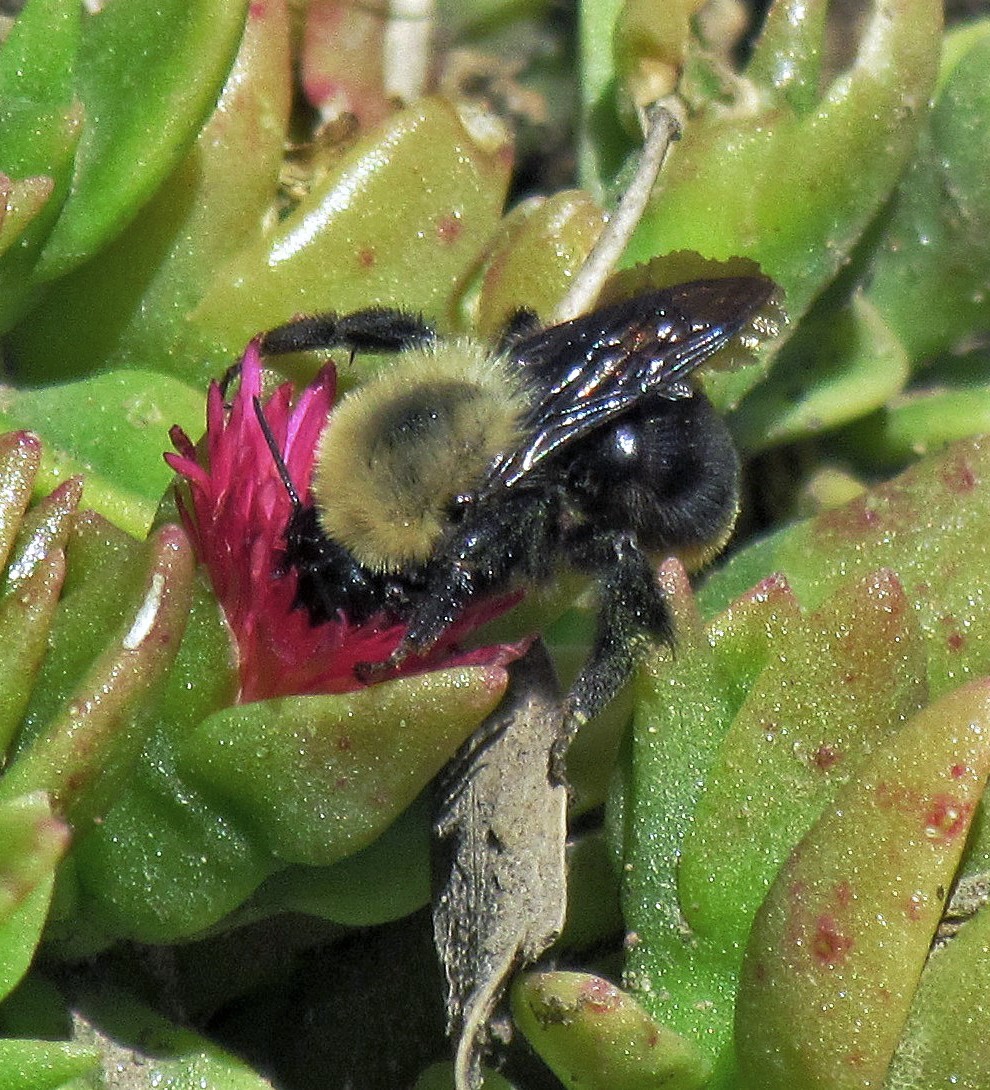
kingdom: Animalia
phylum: Arthropoda
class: Insecta
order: Hymenoptera
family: Apidae
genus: Bombus
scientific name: Bombus bellicosus
